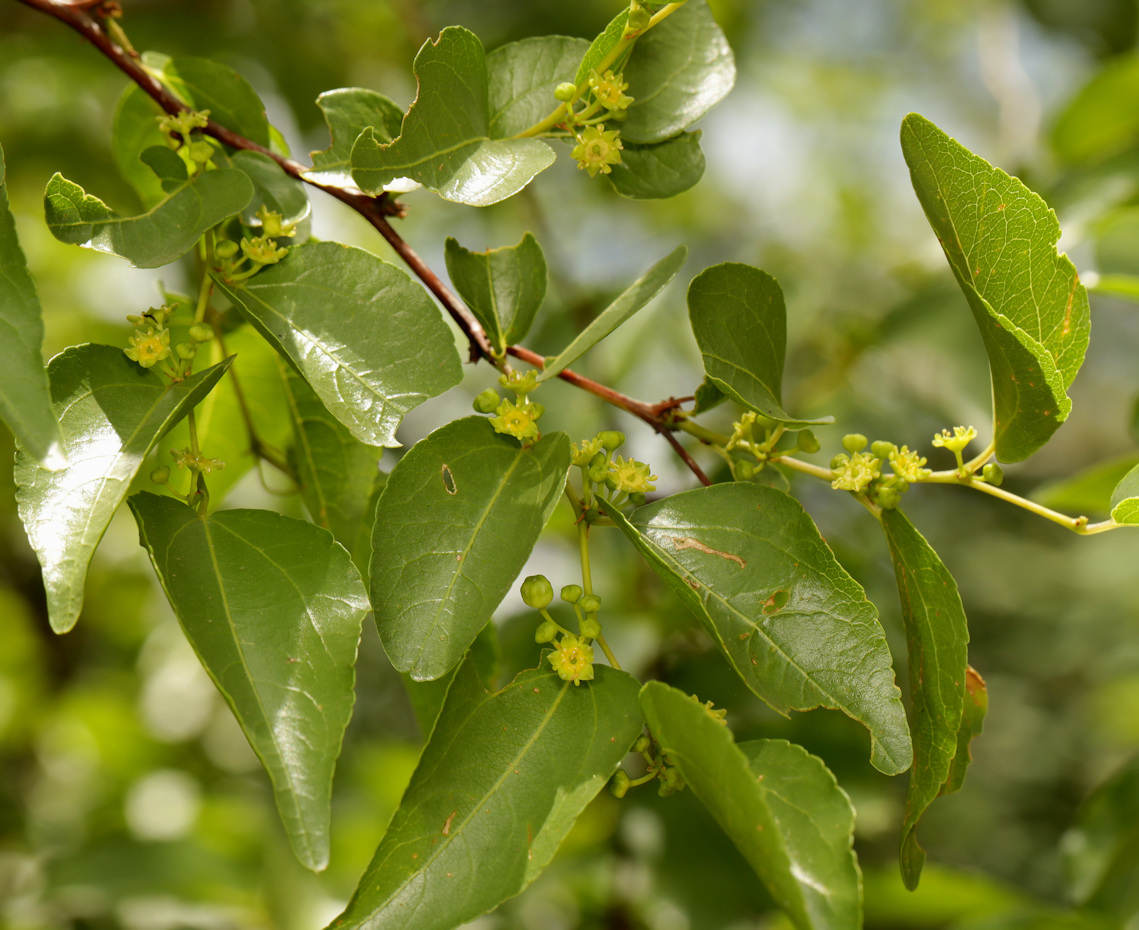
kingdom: Plantae
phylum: Tracheophyta
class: Magnoliopsida
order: Rosales
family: Rhamnaceae
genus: Ziziphus
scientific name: Ziziphus mucronata
